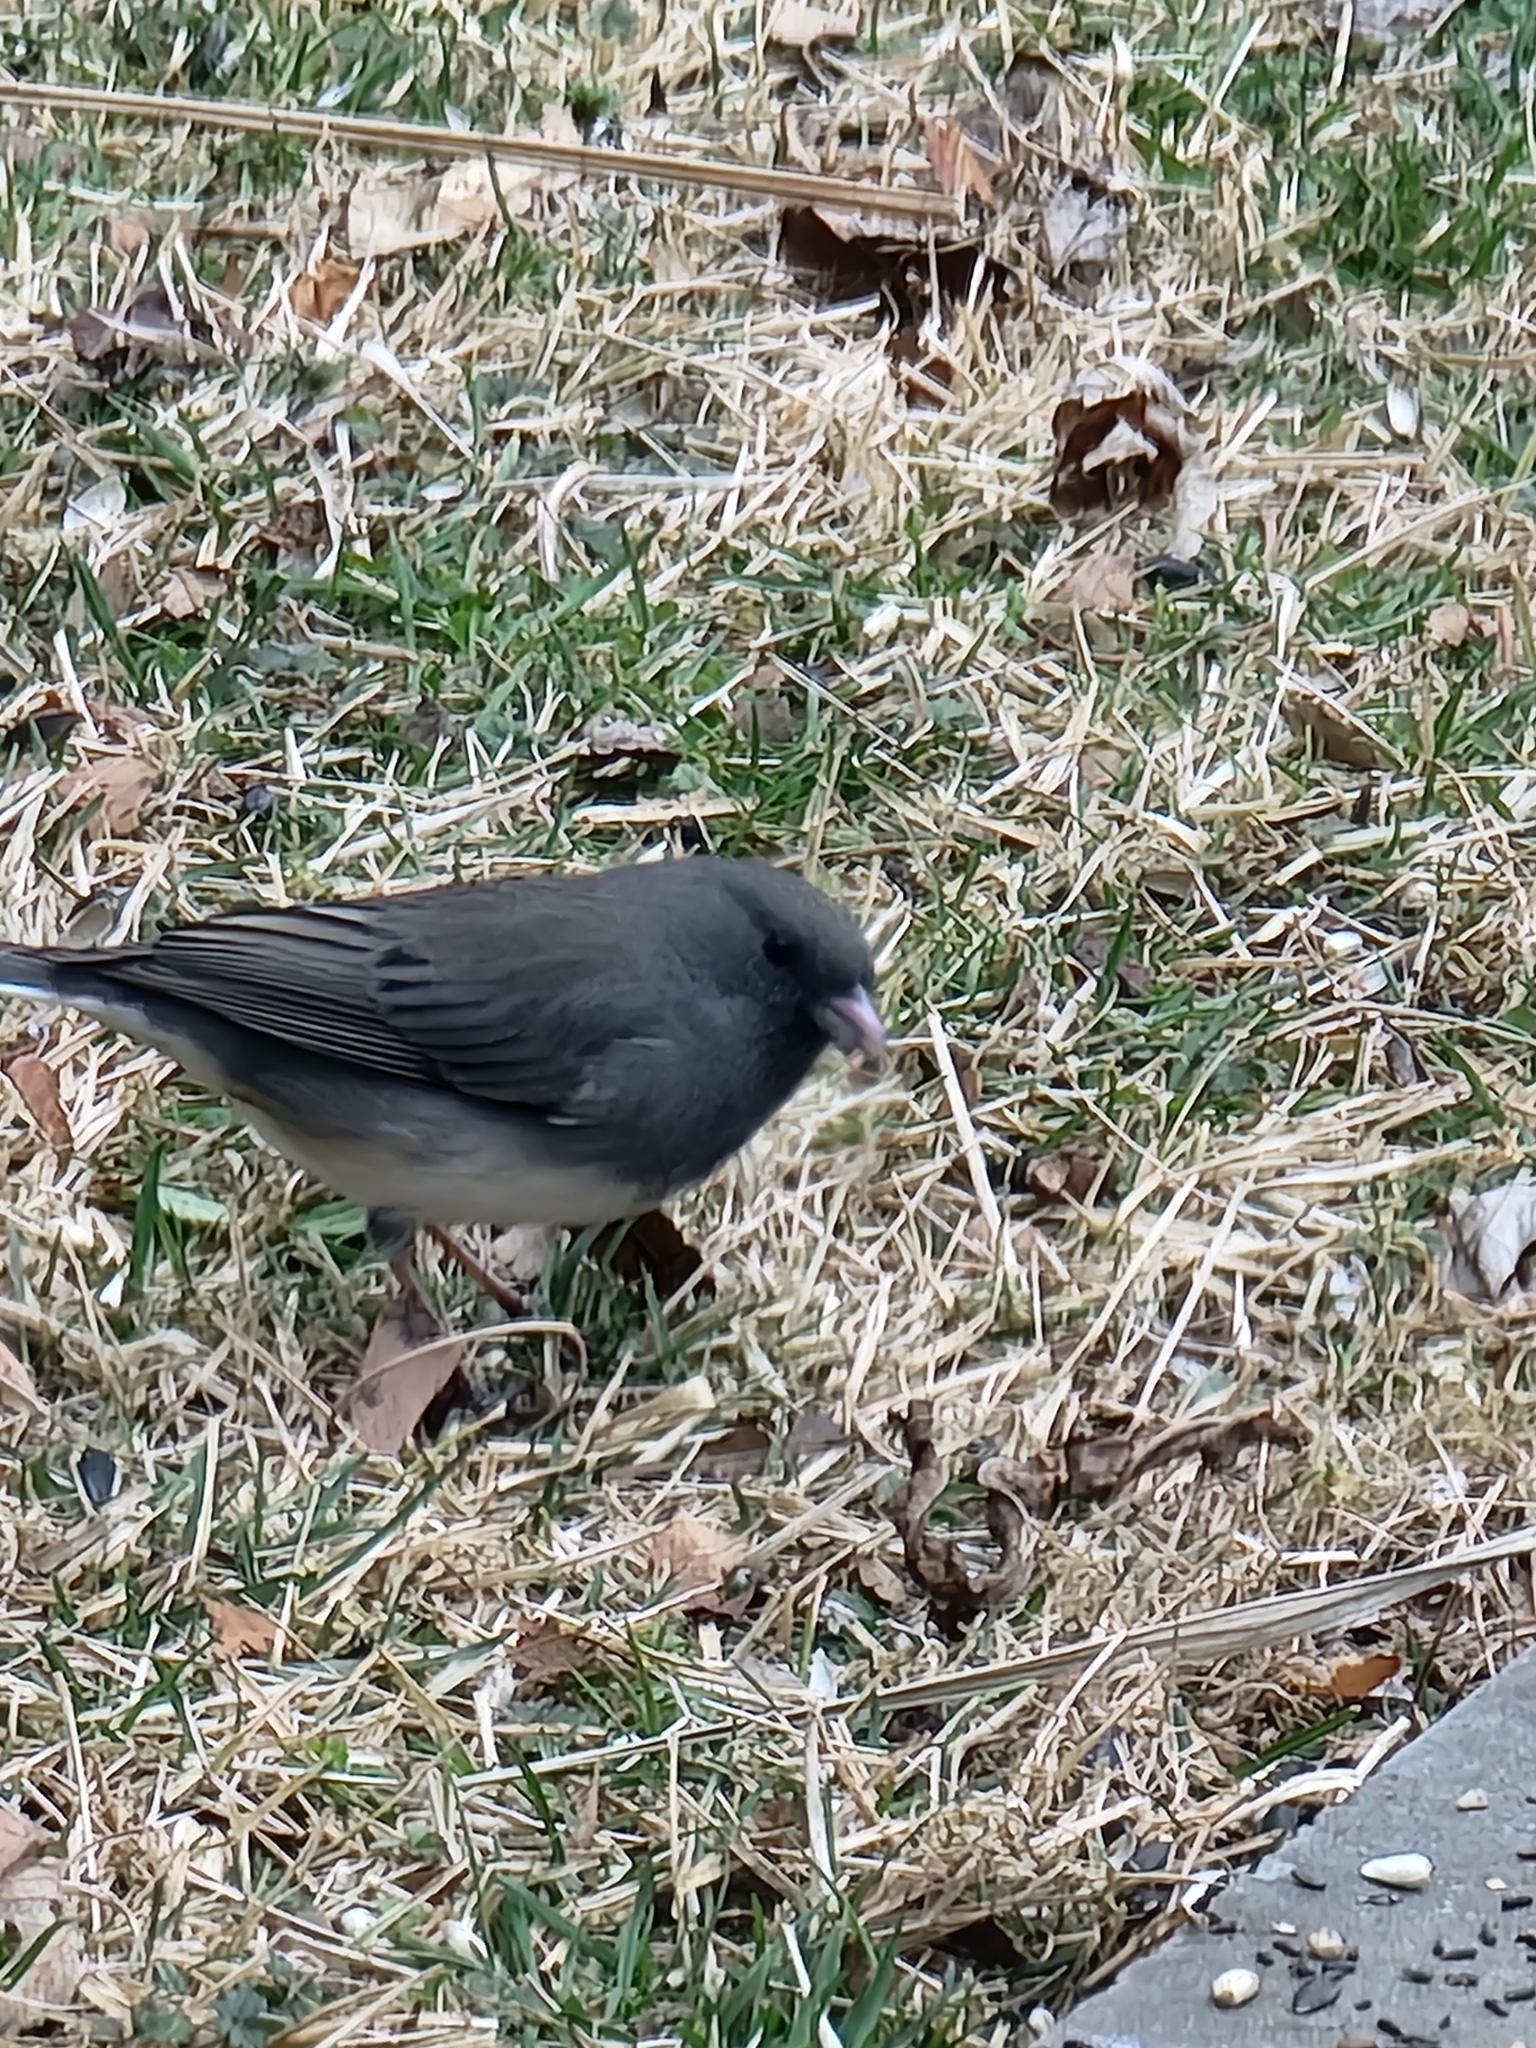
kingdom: Animalia
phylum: Chordata
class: Aves
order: Passeriformes
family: Passerellidae
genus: Junco
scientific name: Junco hyemalis
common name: Dark-eyed junco
